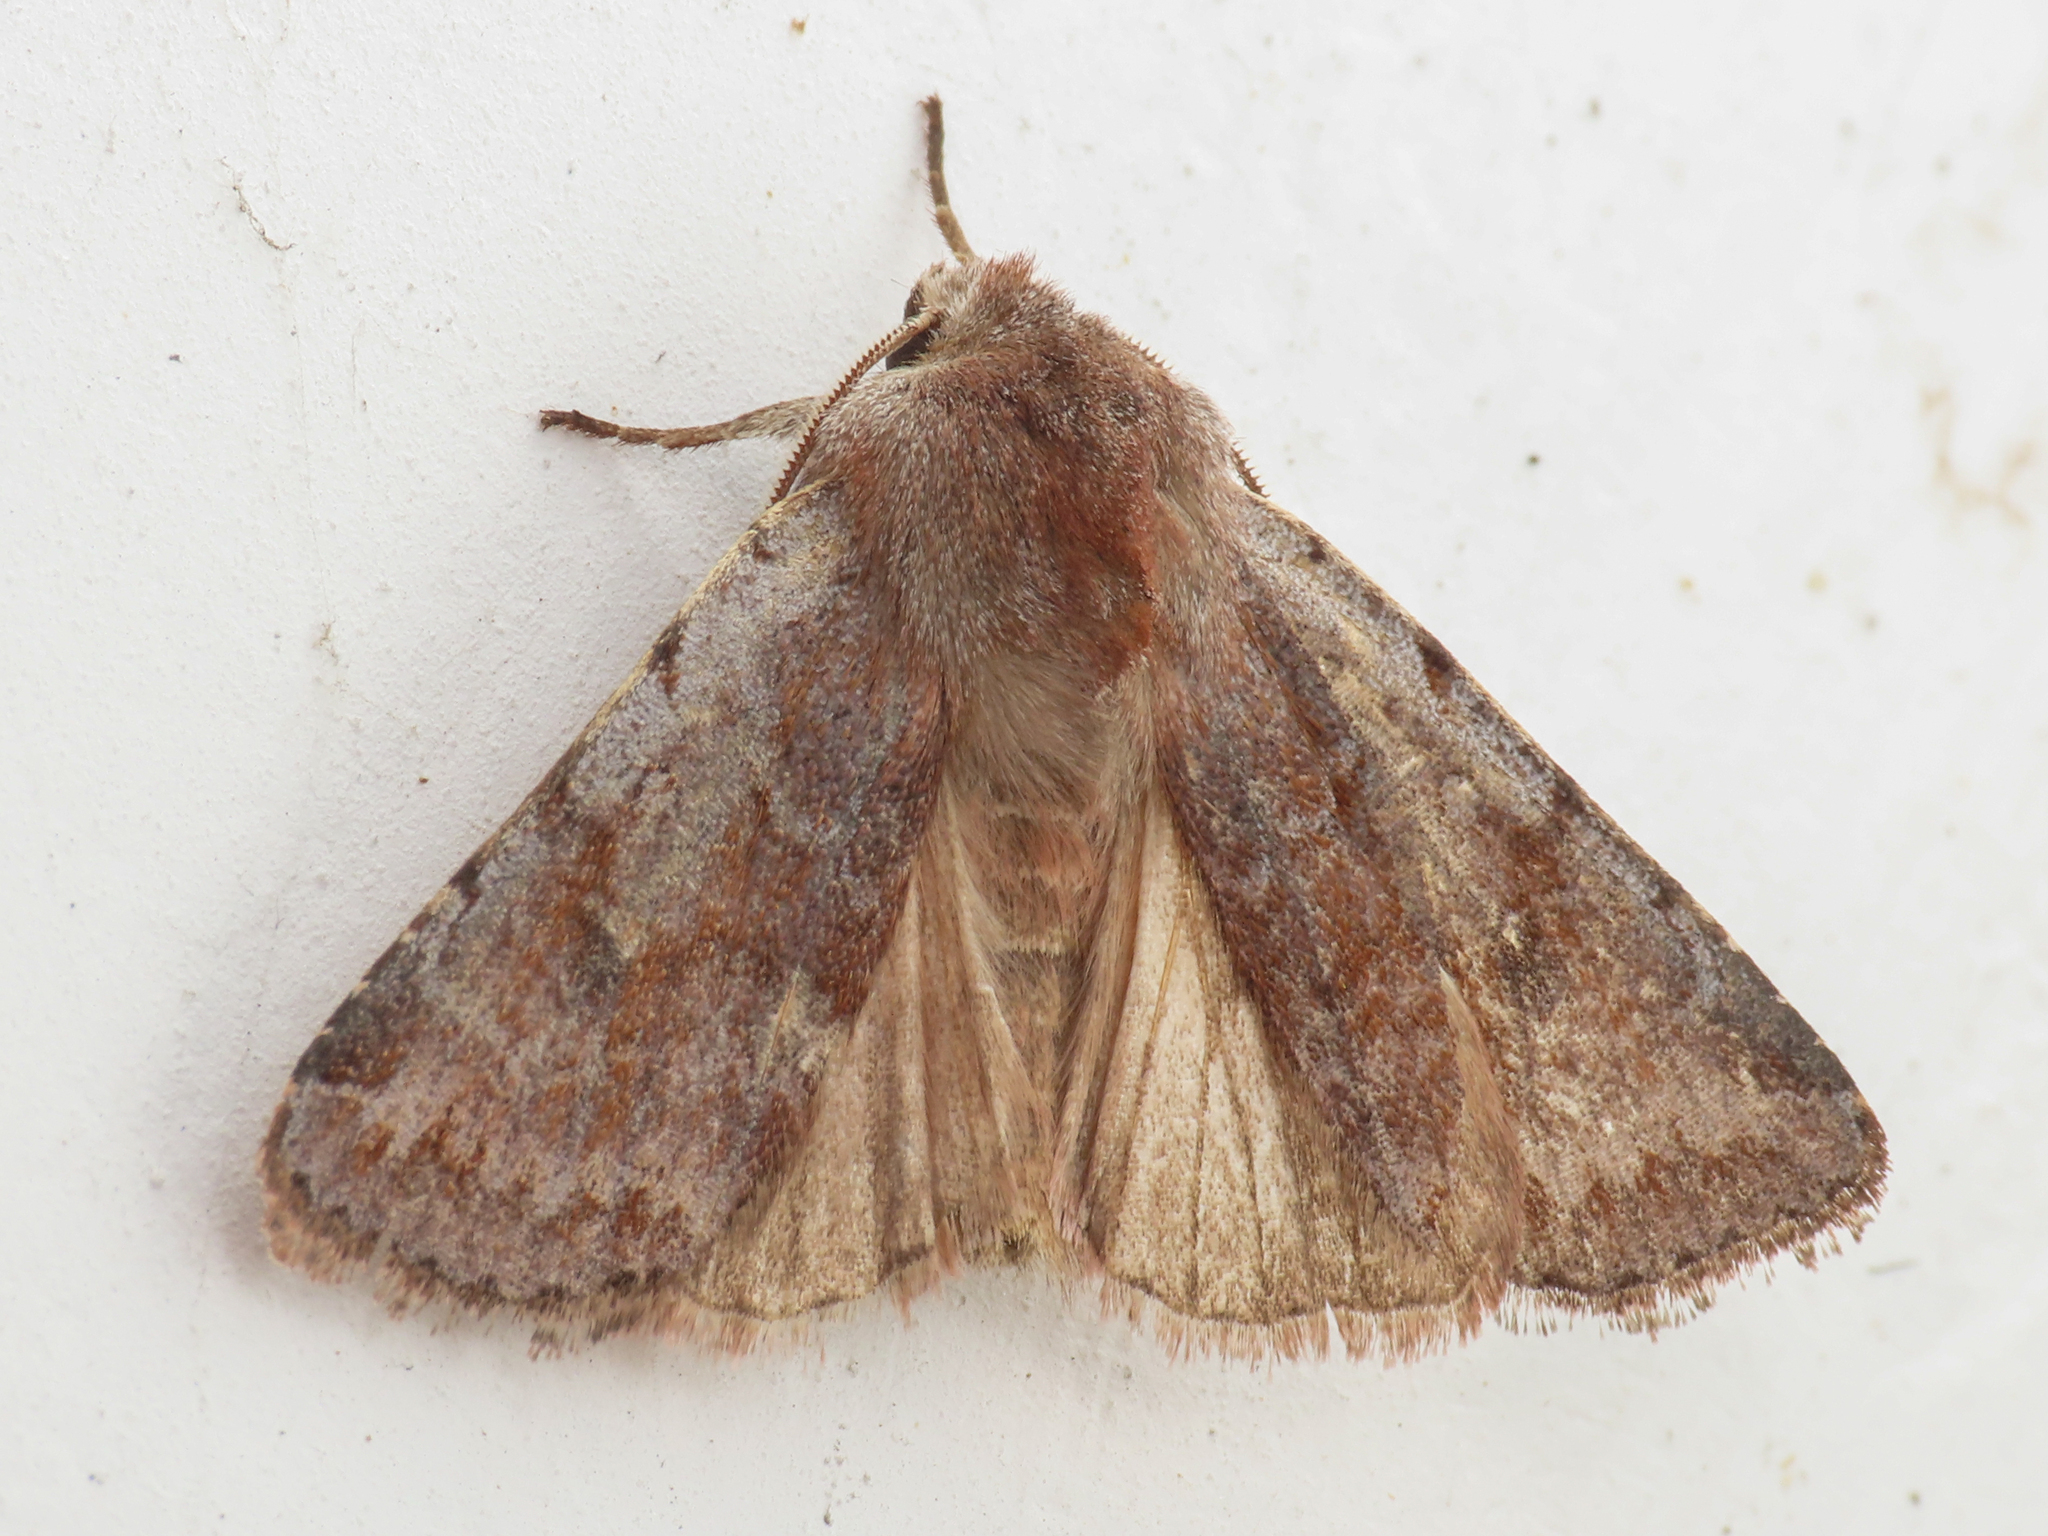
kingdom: Animalia
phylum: Arthropoda
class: Insecta
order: Lepidoptera
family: Noctuidae
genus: Cerastis
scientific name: Cerastis rubricosa
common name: Red chestnut
